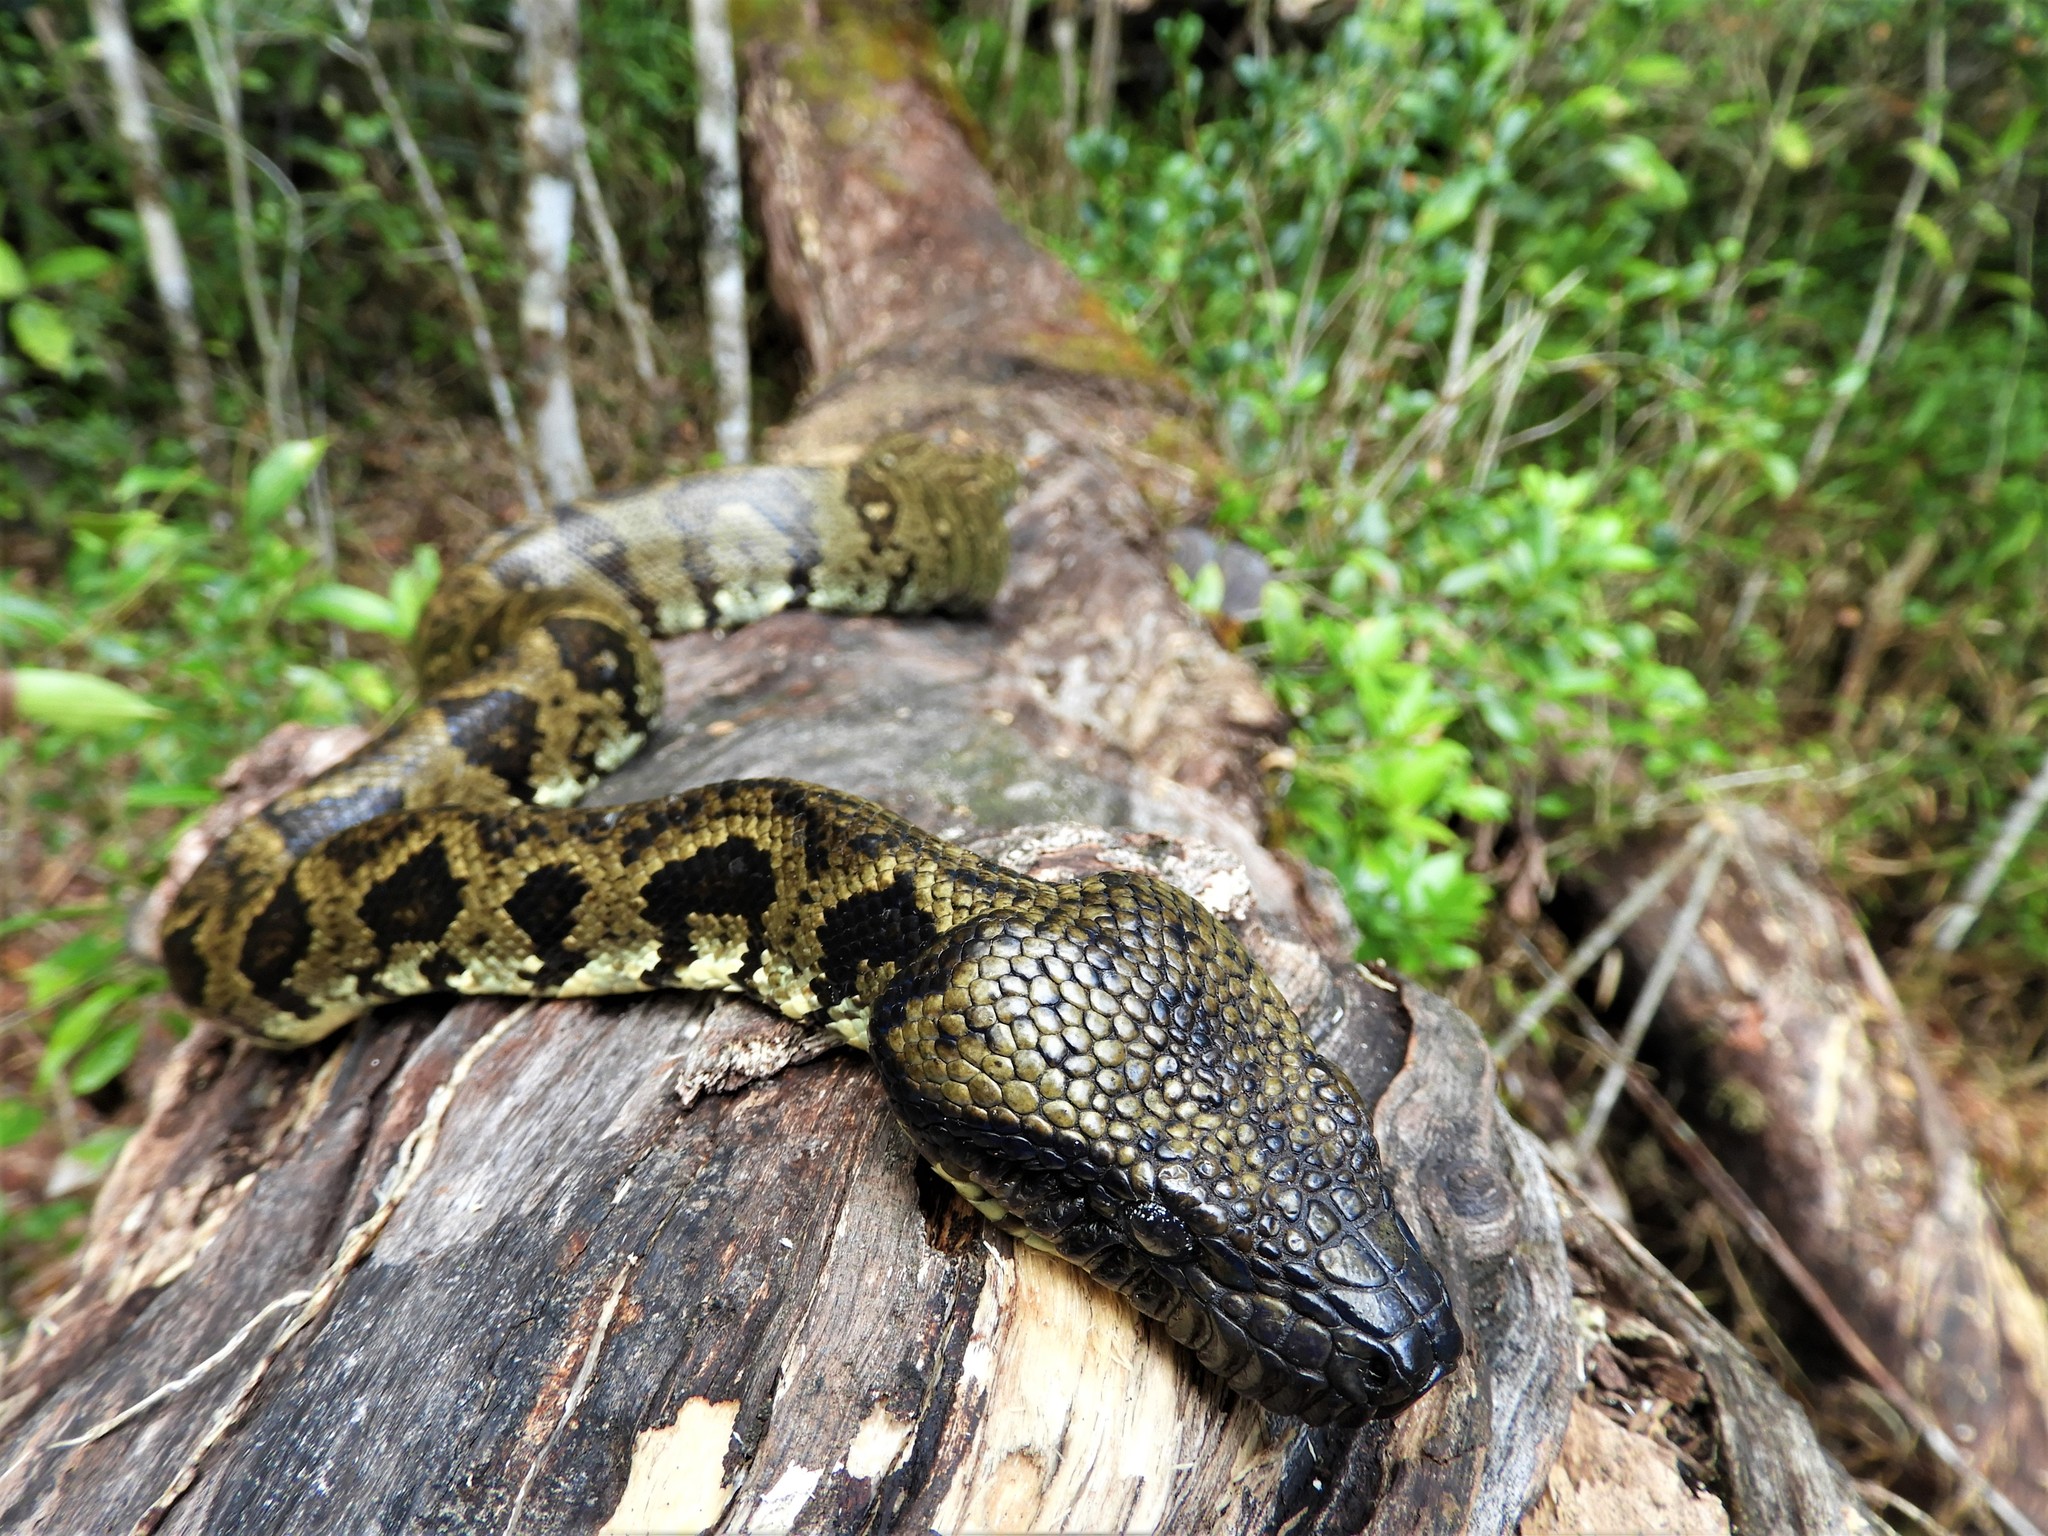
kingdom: Animalia
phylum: Chordata
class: Squamata
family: Boidae
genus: Sanzinia
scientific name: Sanzinia madagascariensis
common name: Madagascar tree boa
